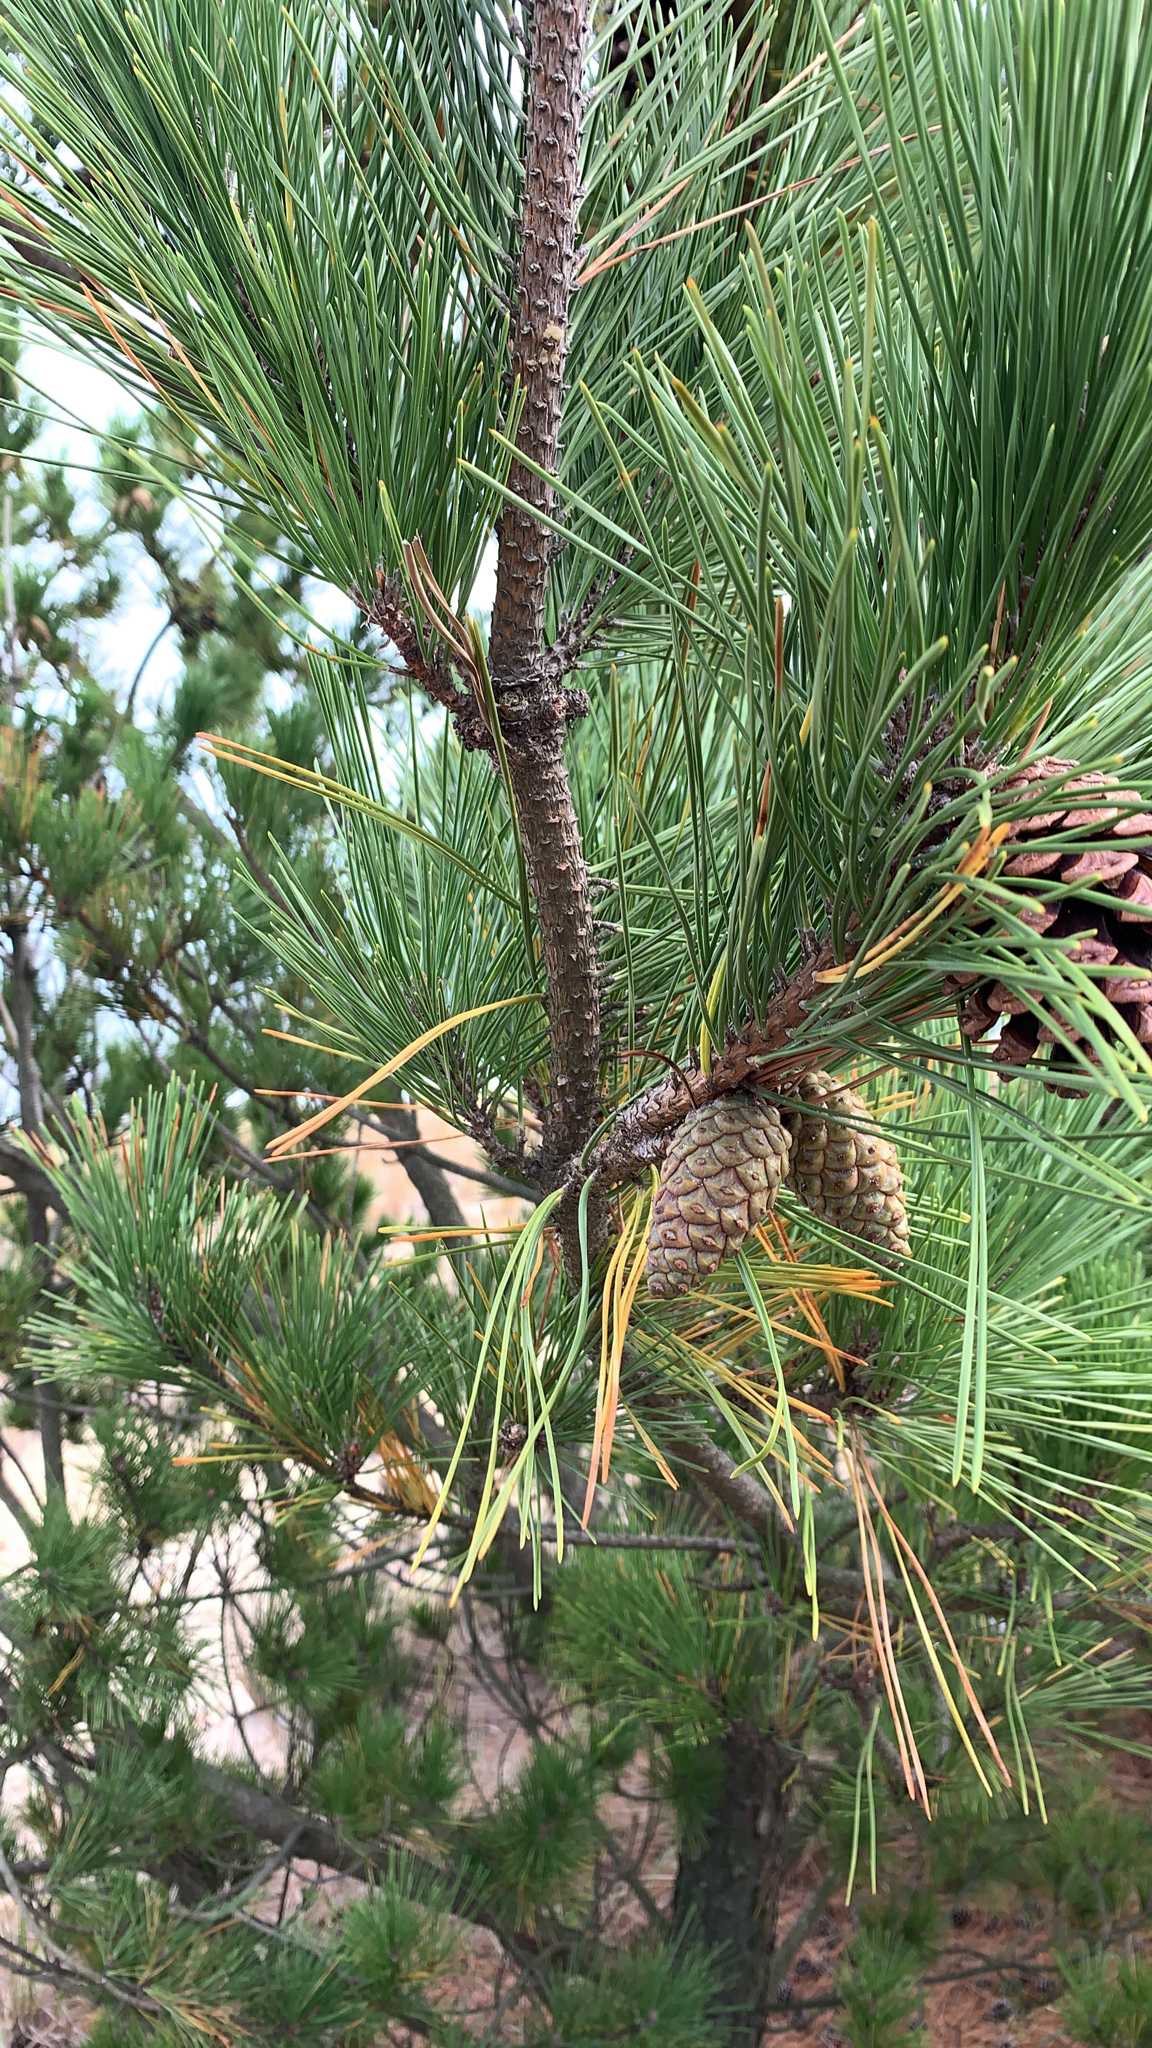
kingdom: Plantae
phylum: Tracheophyta
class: Pinopsida
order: Pinales
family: Pinaceae
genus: Pinus
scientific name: Pinus thunbergii
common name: Japanese black pine
